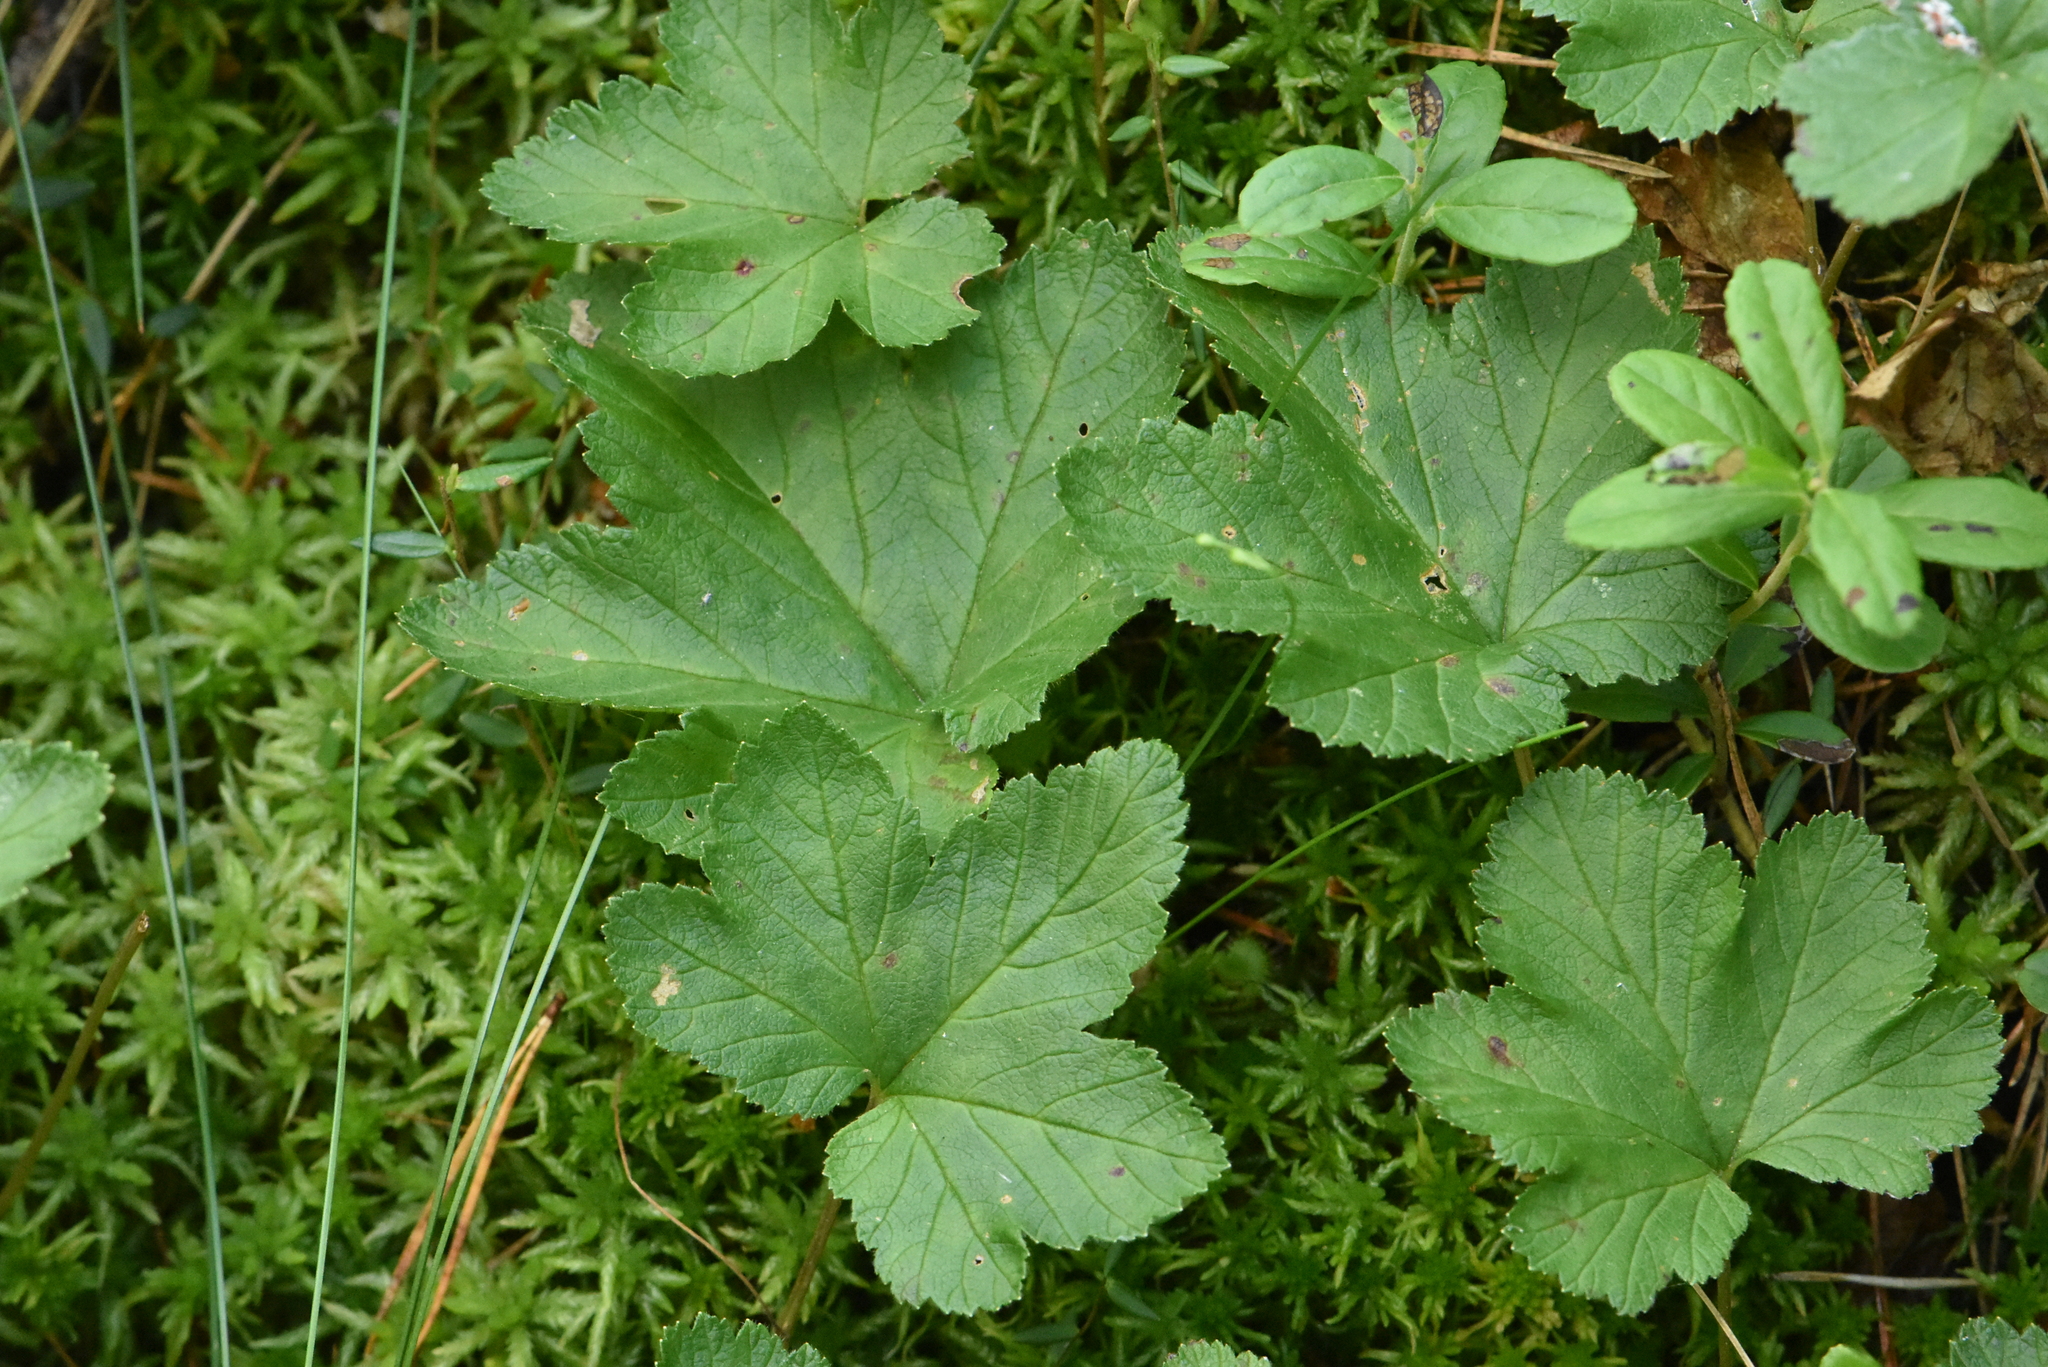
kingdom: Plantae
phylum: Tracheophyta
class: Magnoliopsida
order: Rosales
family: Rosaceae
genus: Rubus
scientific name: Rubus chamaemorus
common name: Cloudberry
